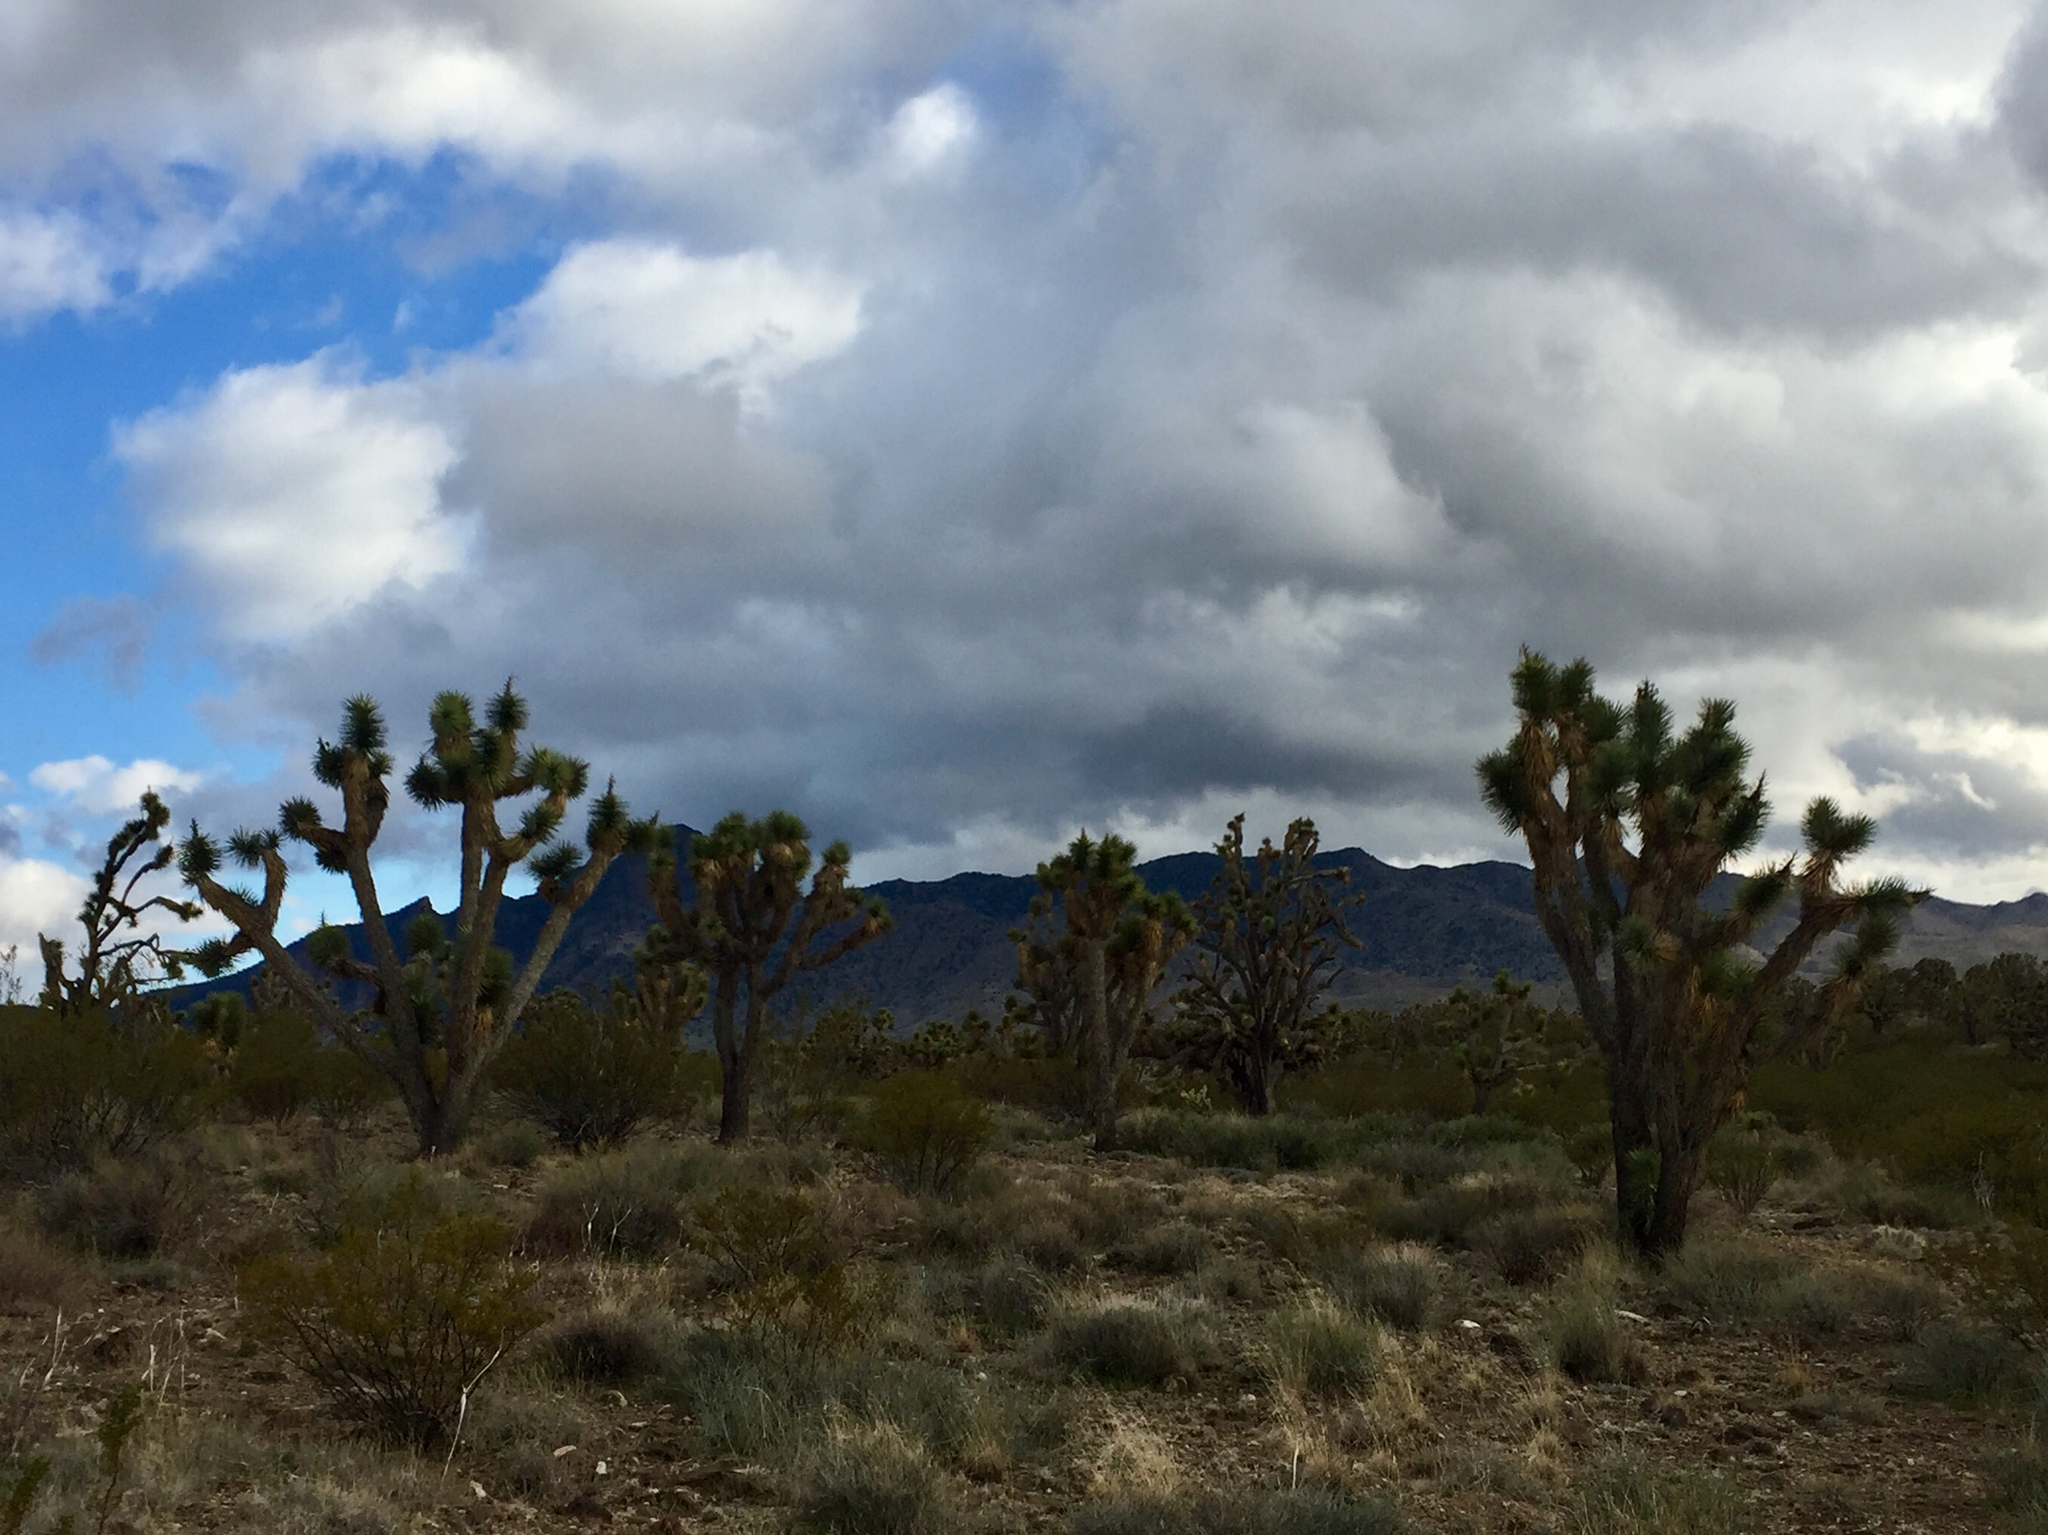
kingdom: Plantae
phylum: Tracheophyta
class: Liliopsida
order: Asparagales
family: Asparagaceae
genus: Yucca
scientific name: Yucca brevifolia
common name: Joshua tree
